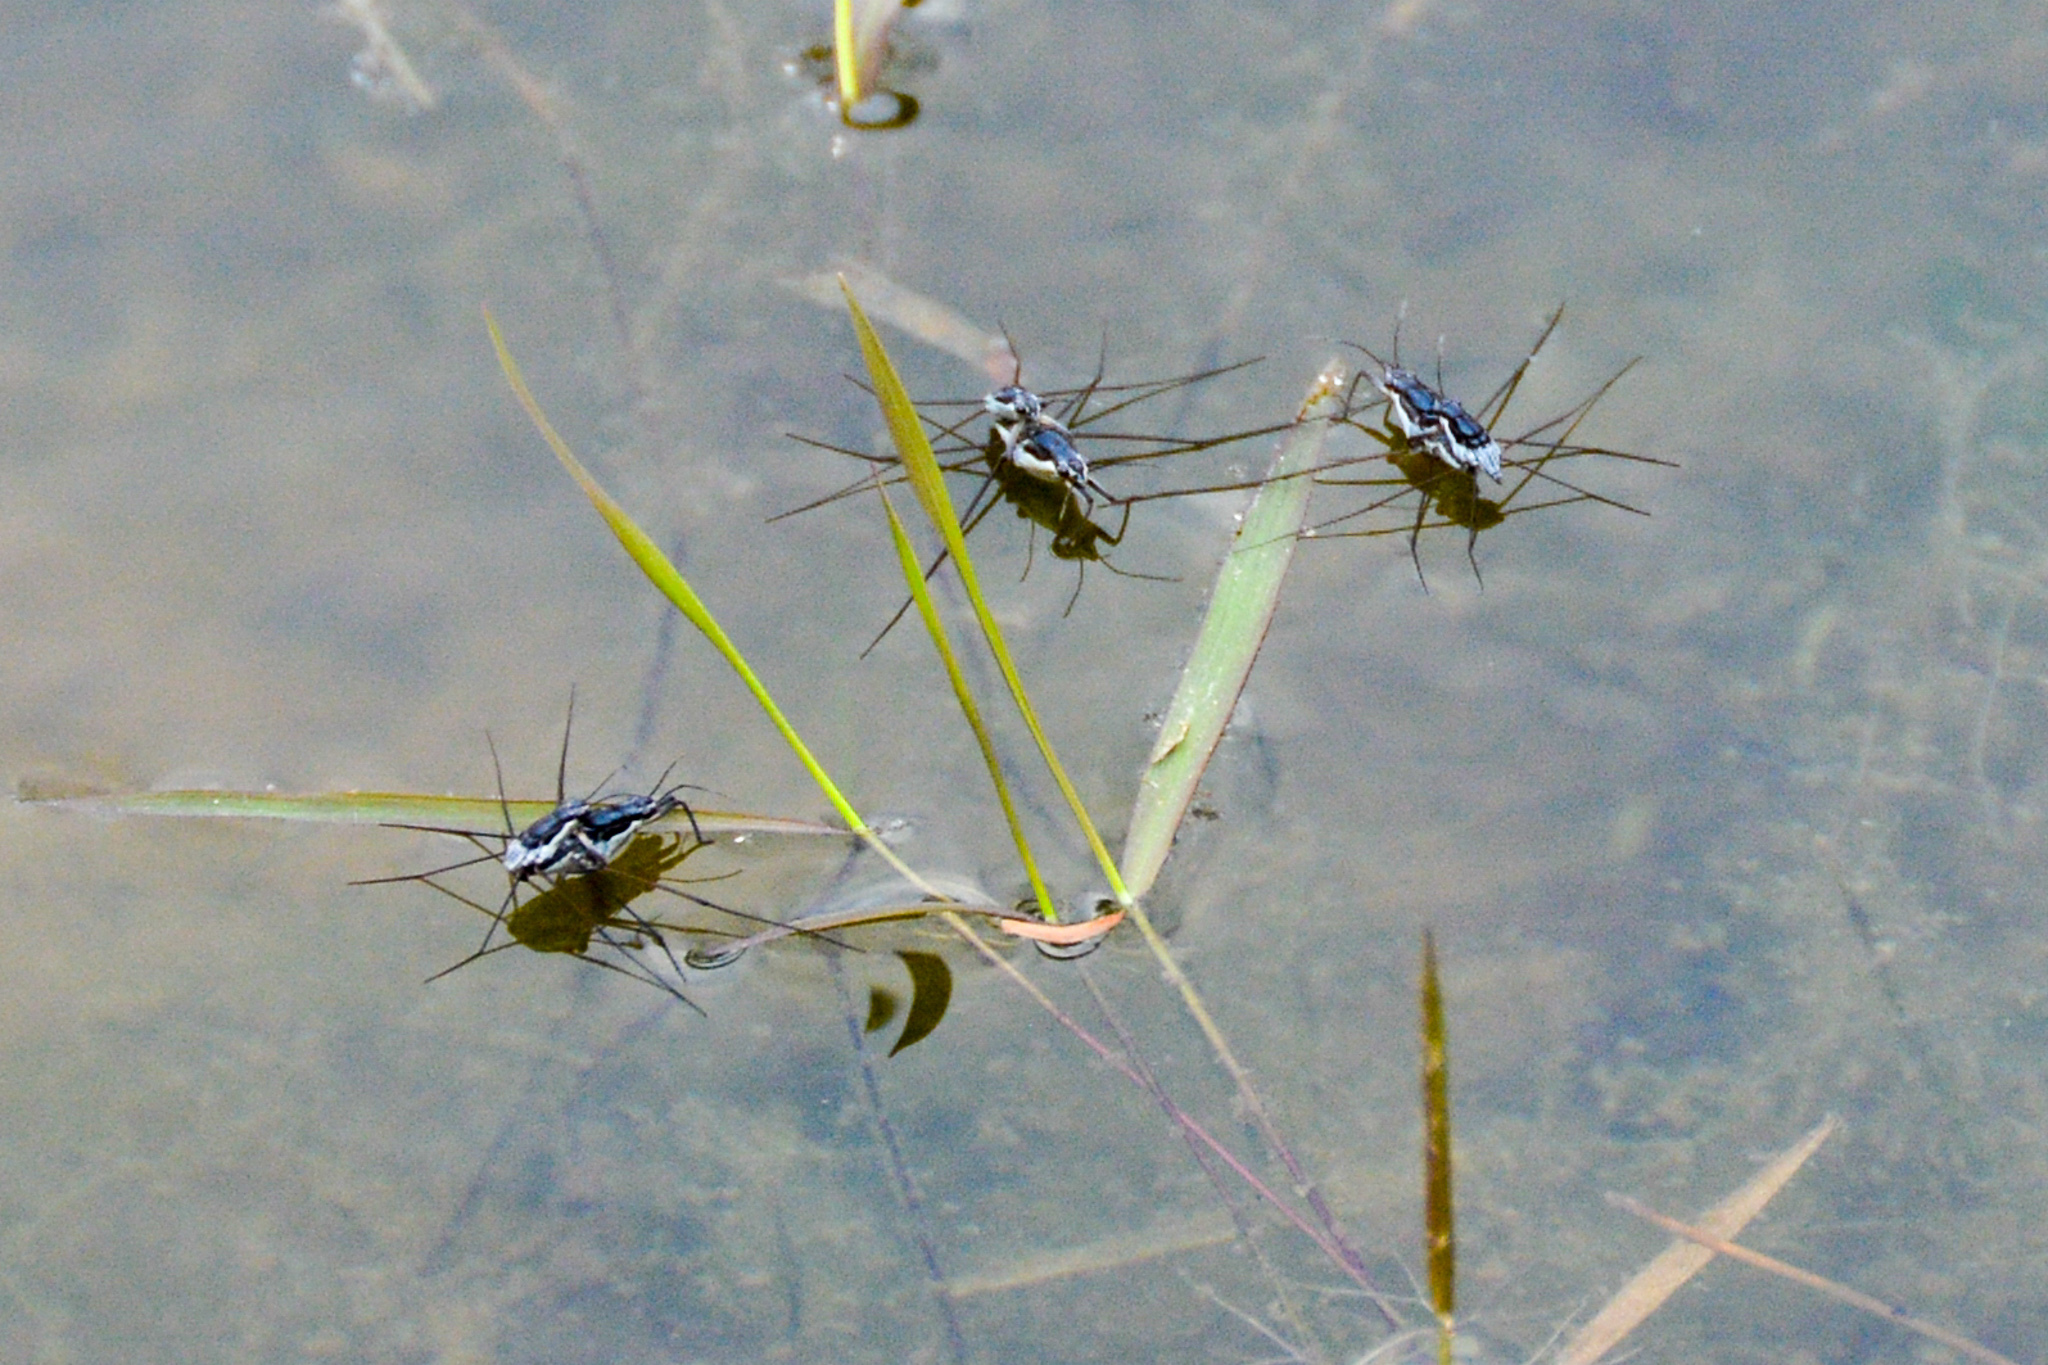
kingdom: Animalia
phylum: Arthropoda
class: Insecta
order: Hemiptera
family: Gerridae
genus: Neogerris
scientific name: Neogerris hesione
